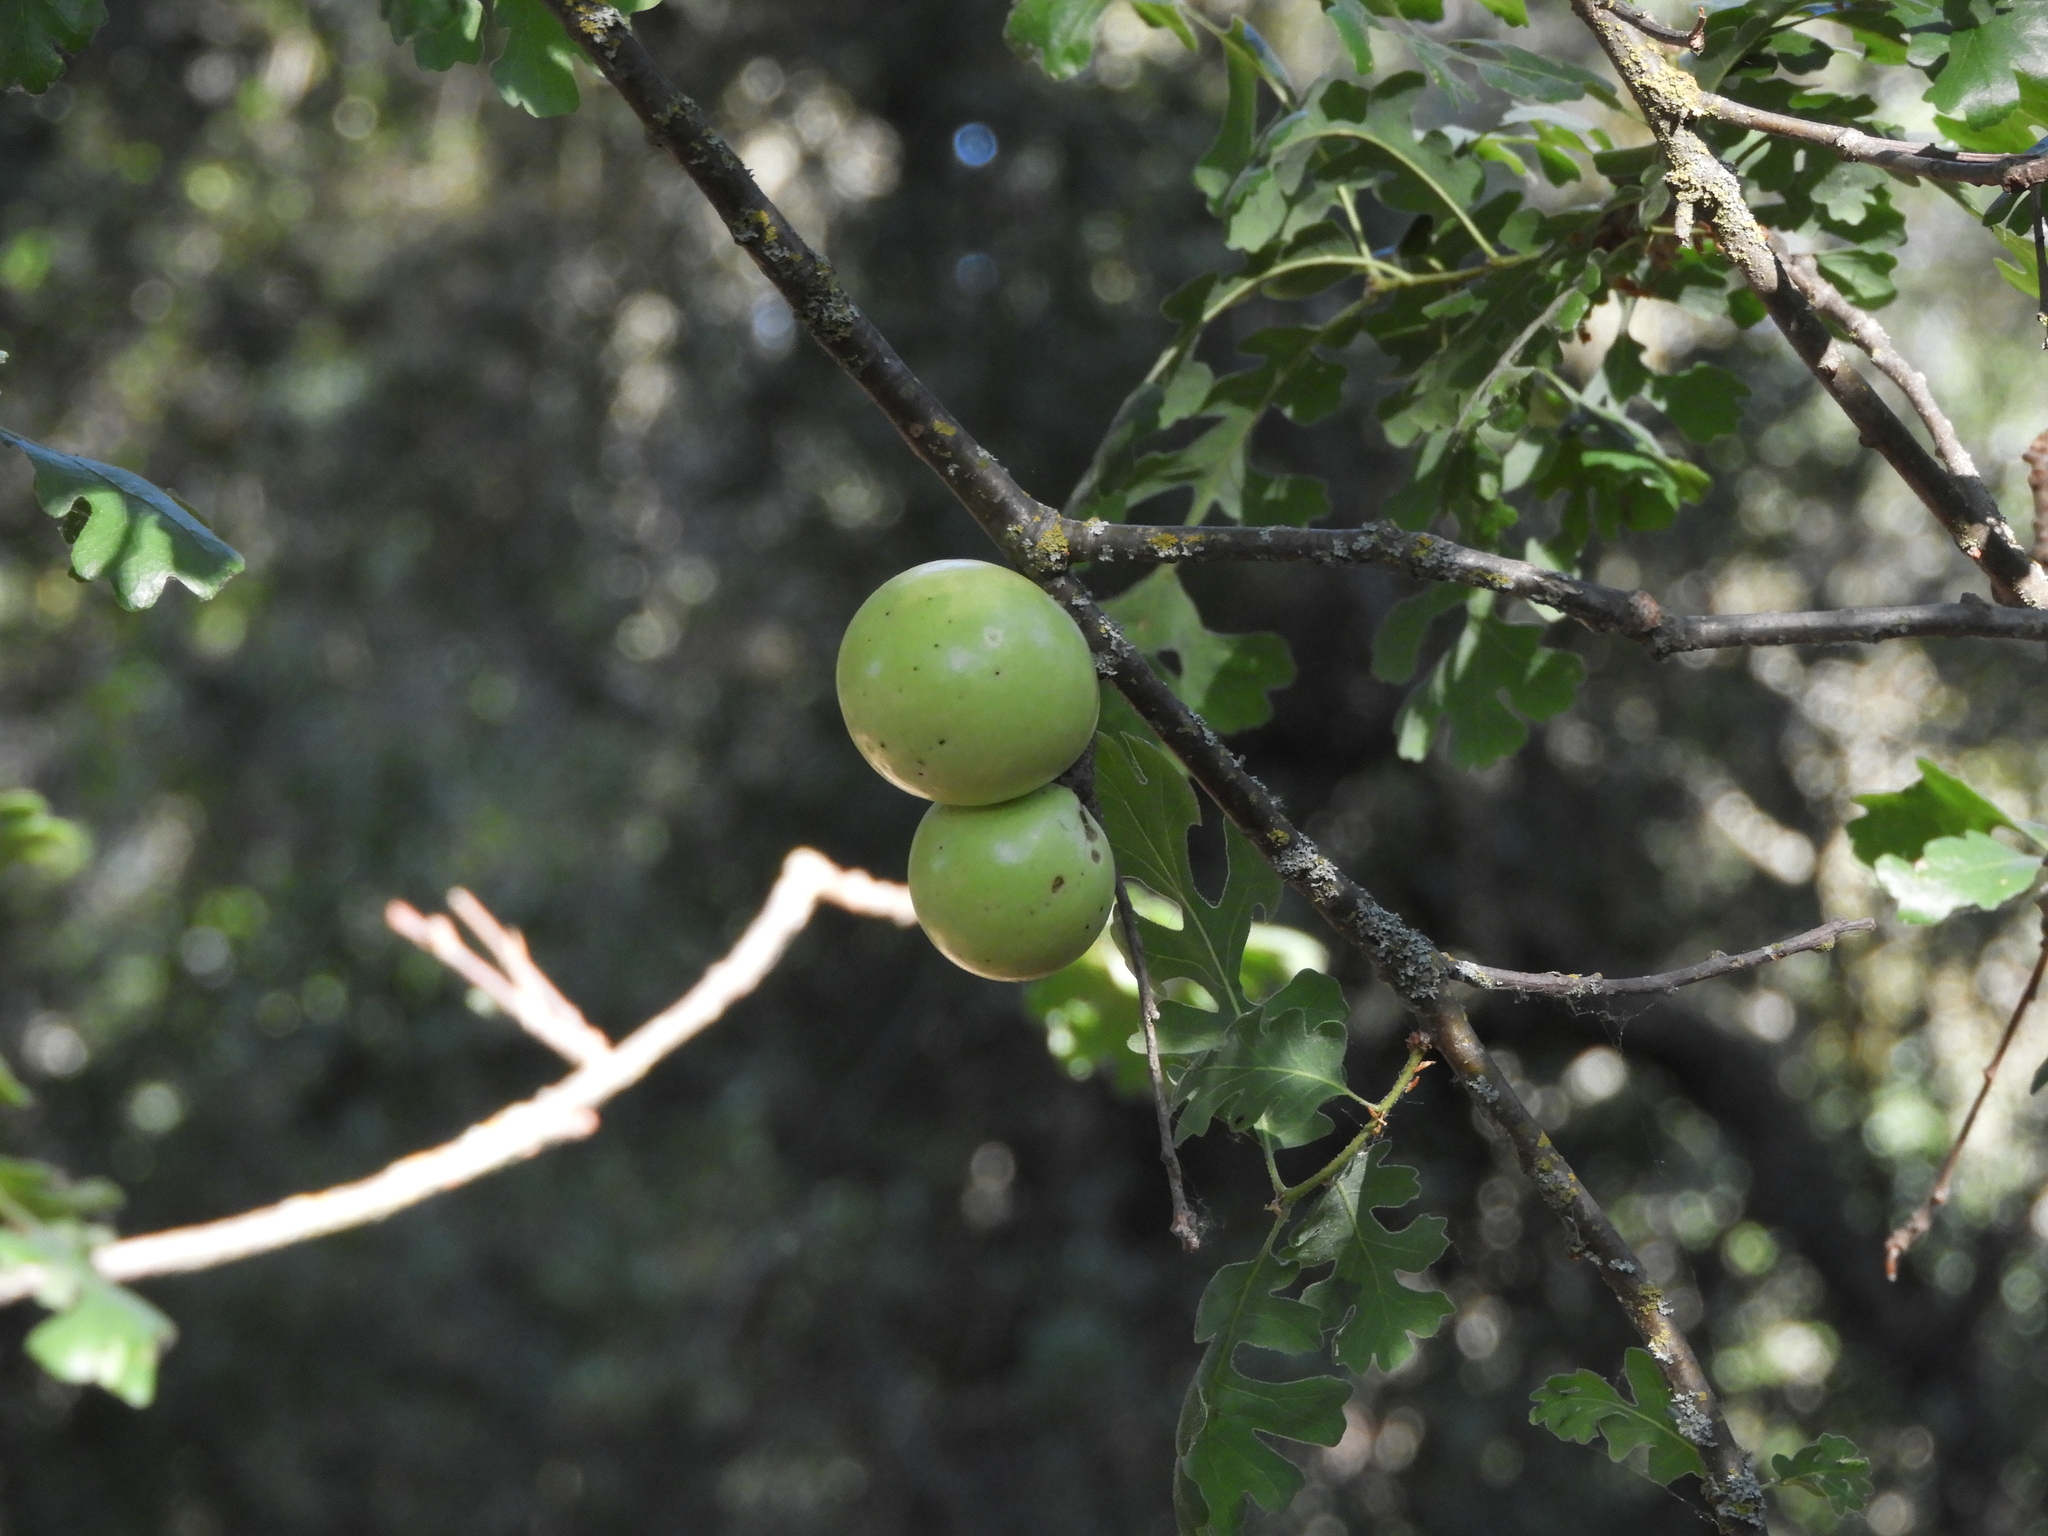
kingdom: Animalia
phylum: Arthropoda
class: Insecta
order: Hymenoptera
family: Cynipidae
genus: Andricus
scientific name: Andricus quercuscalifornicus
